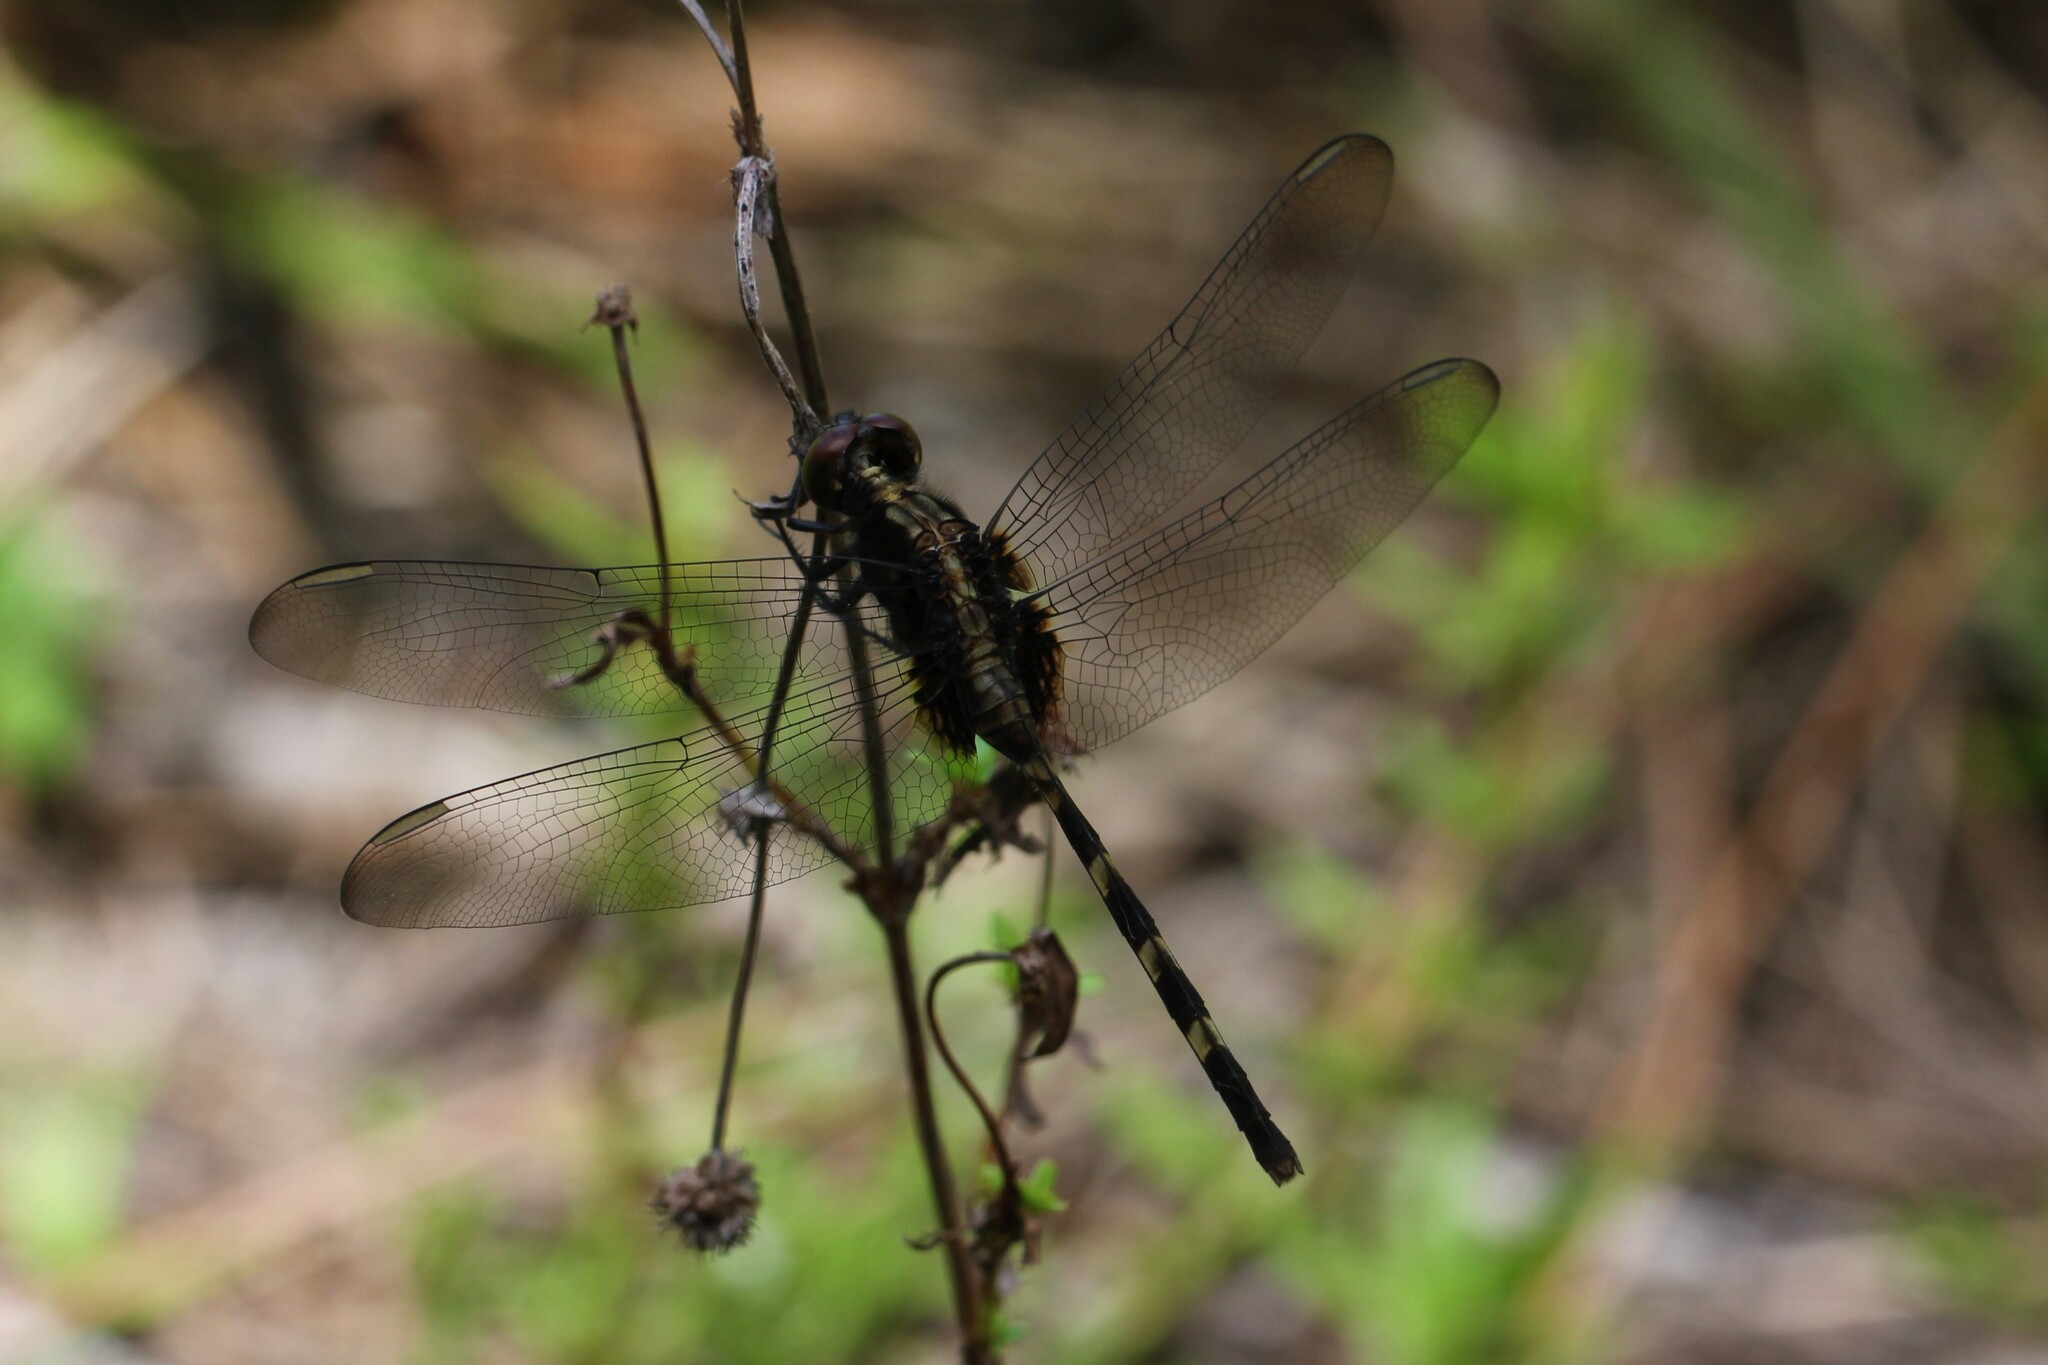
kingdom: Animalia
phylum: Arthropoda
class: Insecta
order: Odonata
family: Libellulidae
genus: Erythemis
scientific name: Erythemis plebeja
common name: Pin-tailed pondhawk
